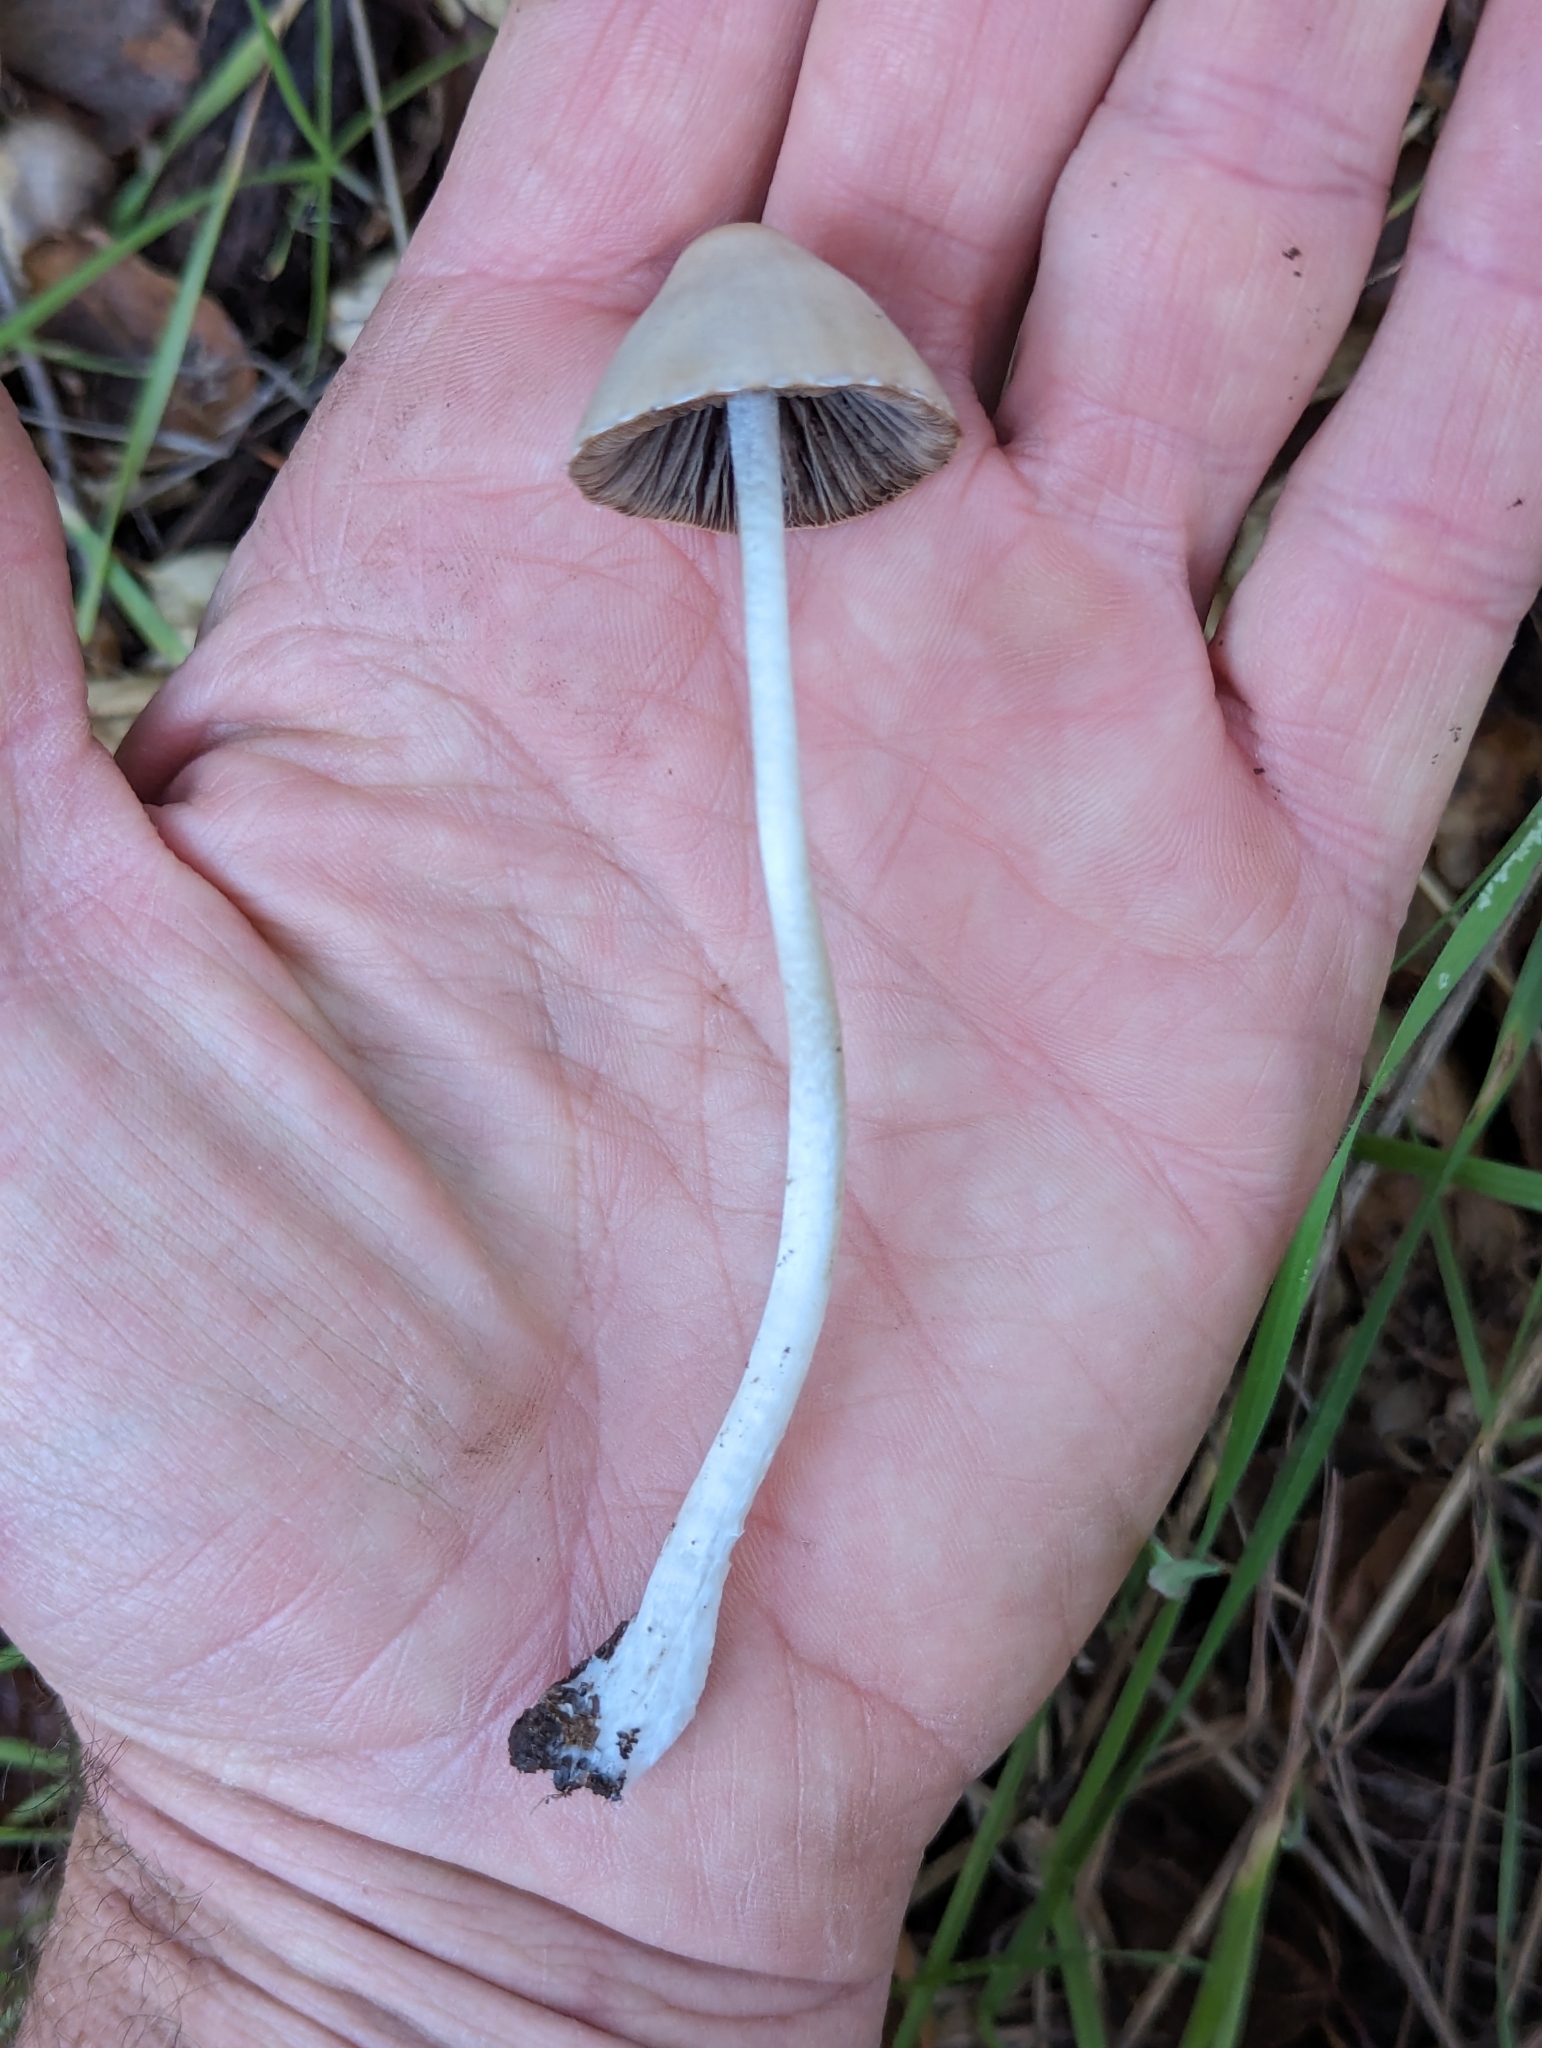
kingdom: Fungi
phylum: Basidiomycota
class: Agaricomycetes
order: Agaricales
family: Psathyrellaceae
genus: Psathyrella
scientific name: Psathyrella longipes
